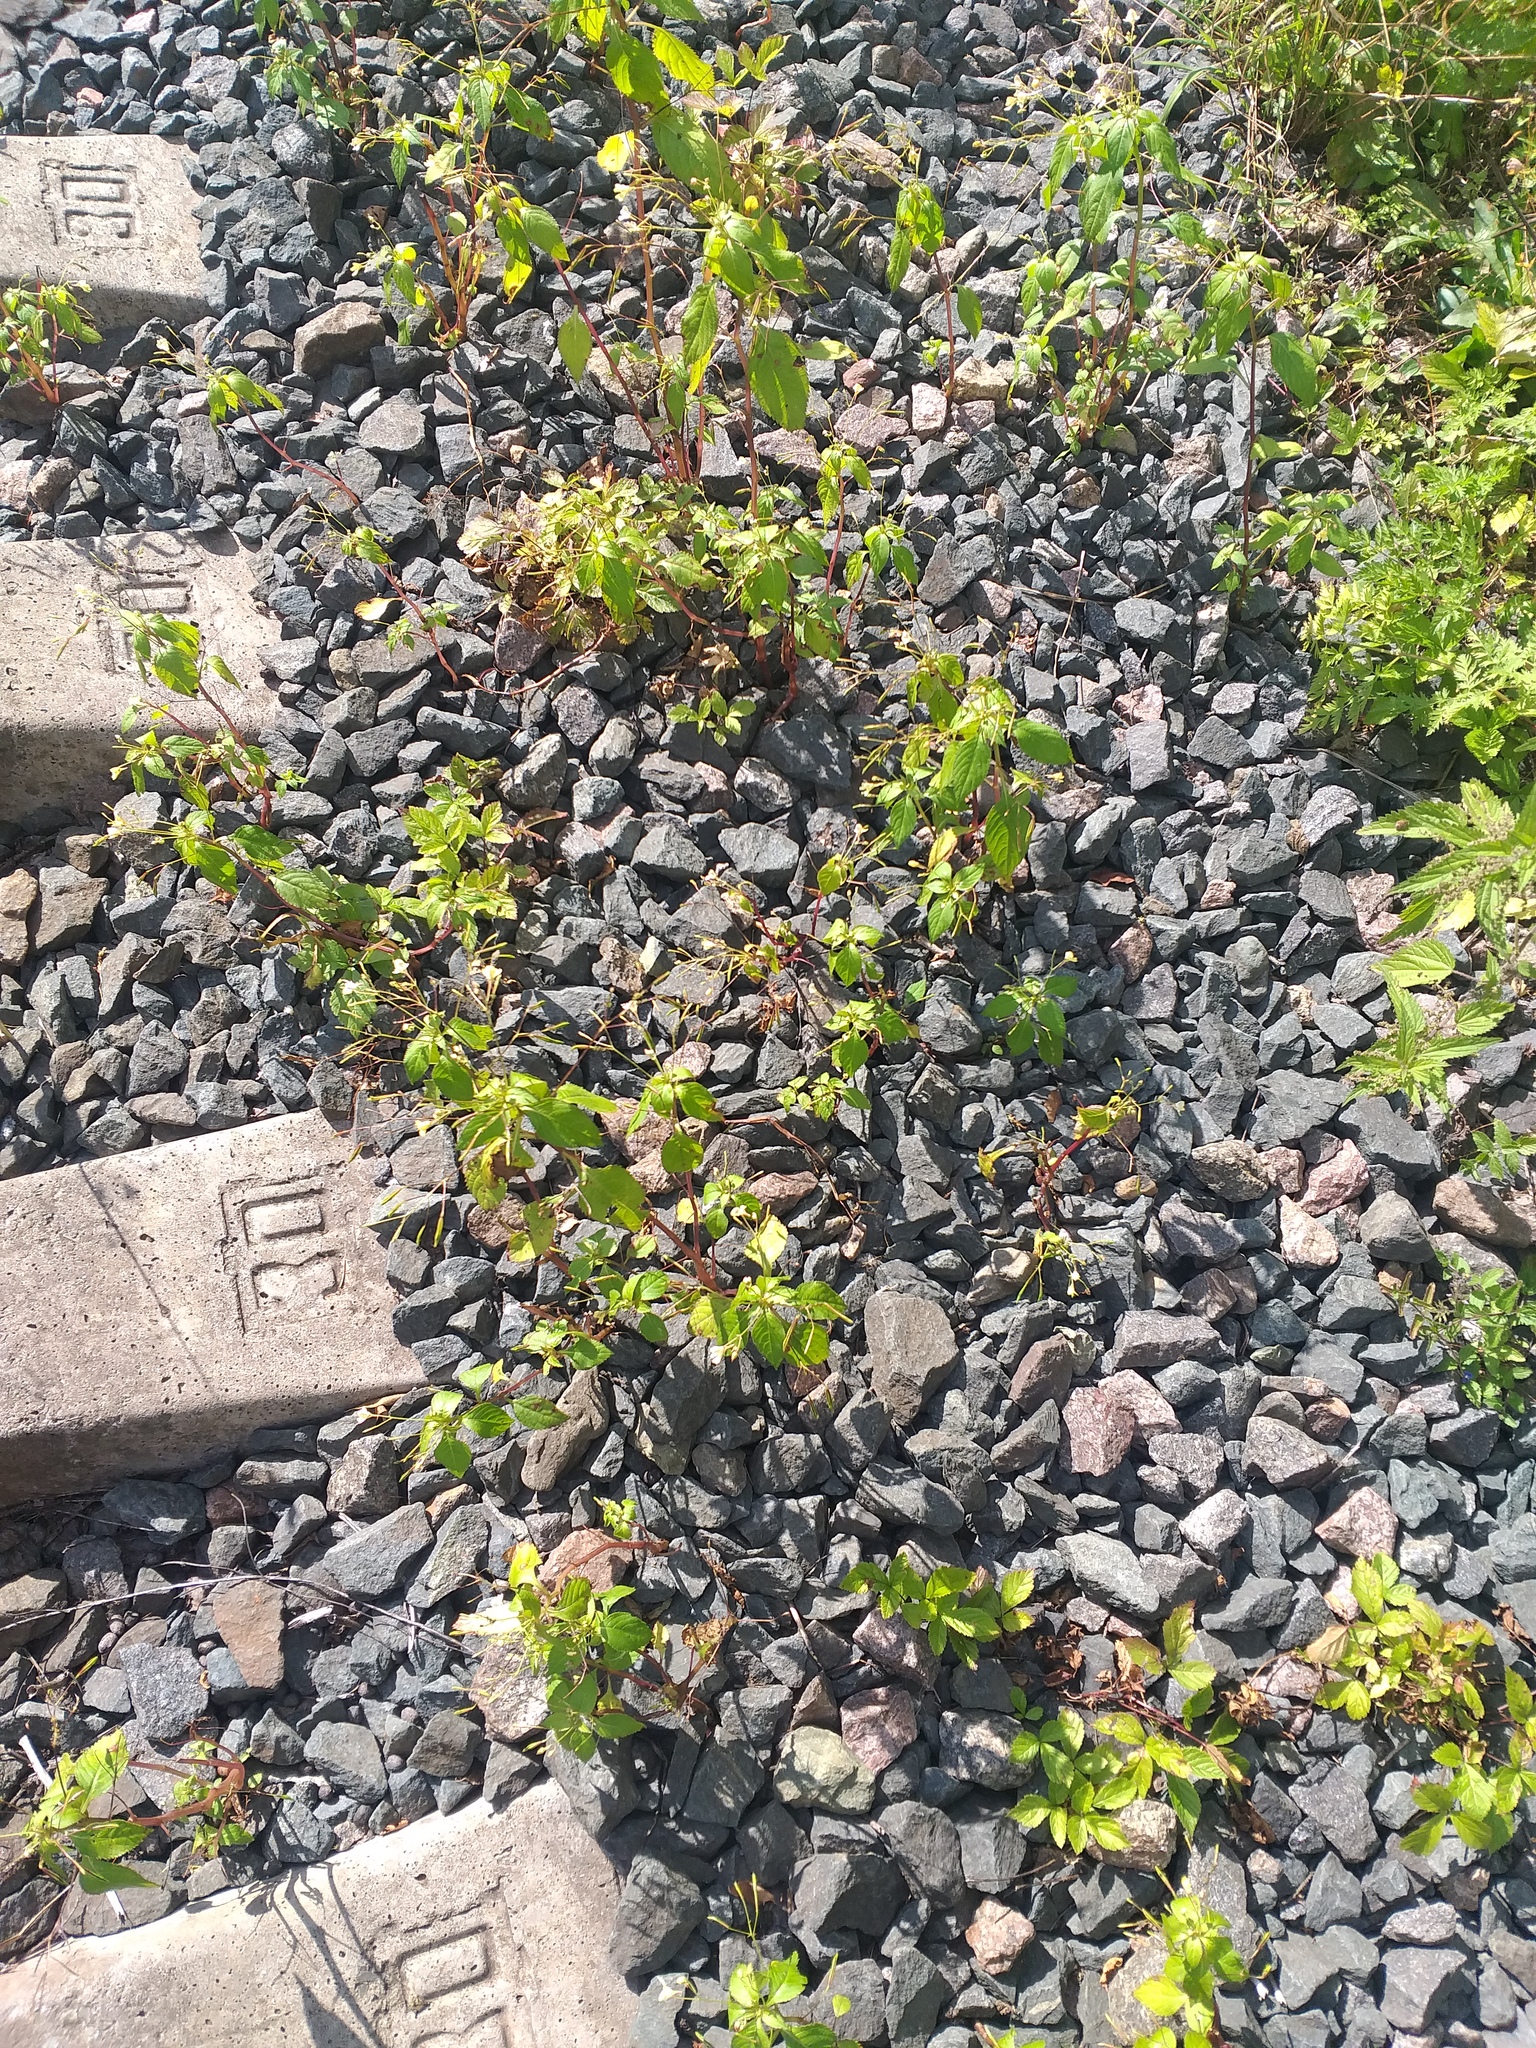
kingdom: Plantae
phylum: Tracheophyta
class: Magnoliopsida
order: Ericales
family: Balsaminaceae
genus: Impatiens
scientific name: Impatiens parviflora
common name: Small balsam
